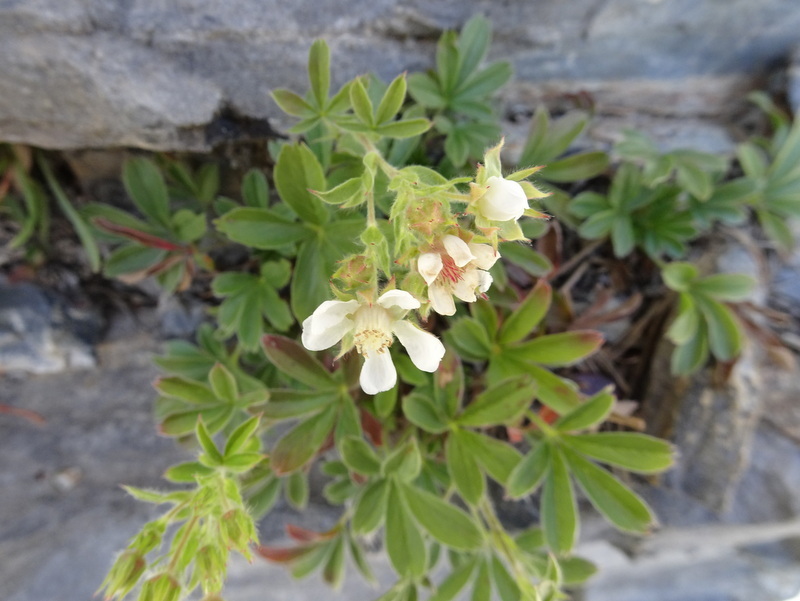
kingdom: Plantae
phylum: Tracheophyta
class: Magnoliopsida
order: Rosales
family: Rosaceae
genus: Potentilla
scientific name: Potentilla caulescens
